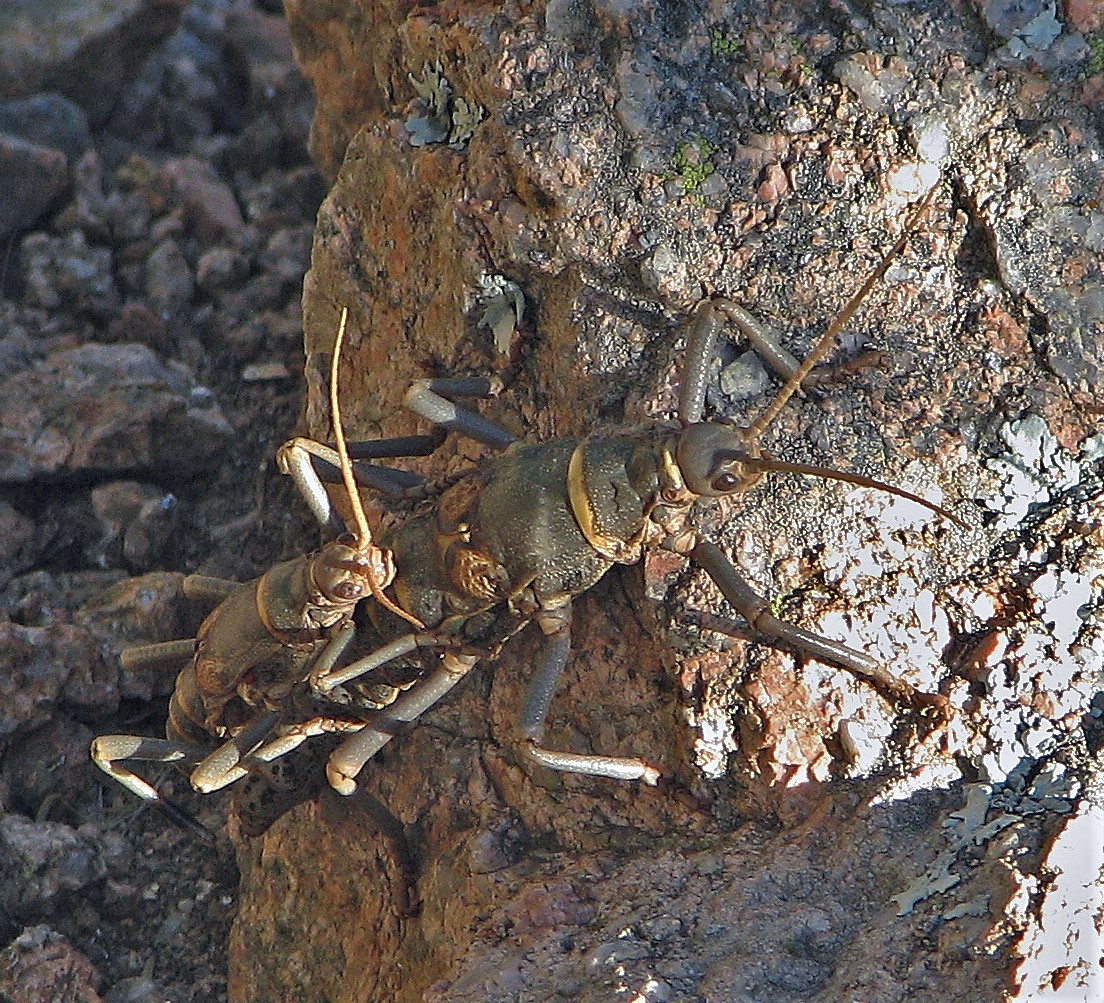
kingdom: Animalia
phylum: Arthropoda
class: Insecta
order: Phasmida
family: Agathemeridae
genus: Agathemera
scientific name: Agathemera luteola
